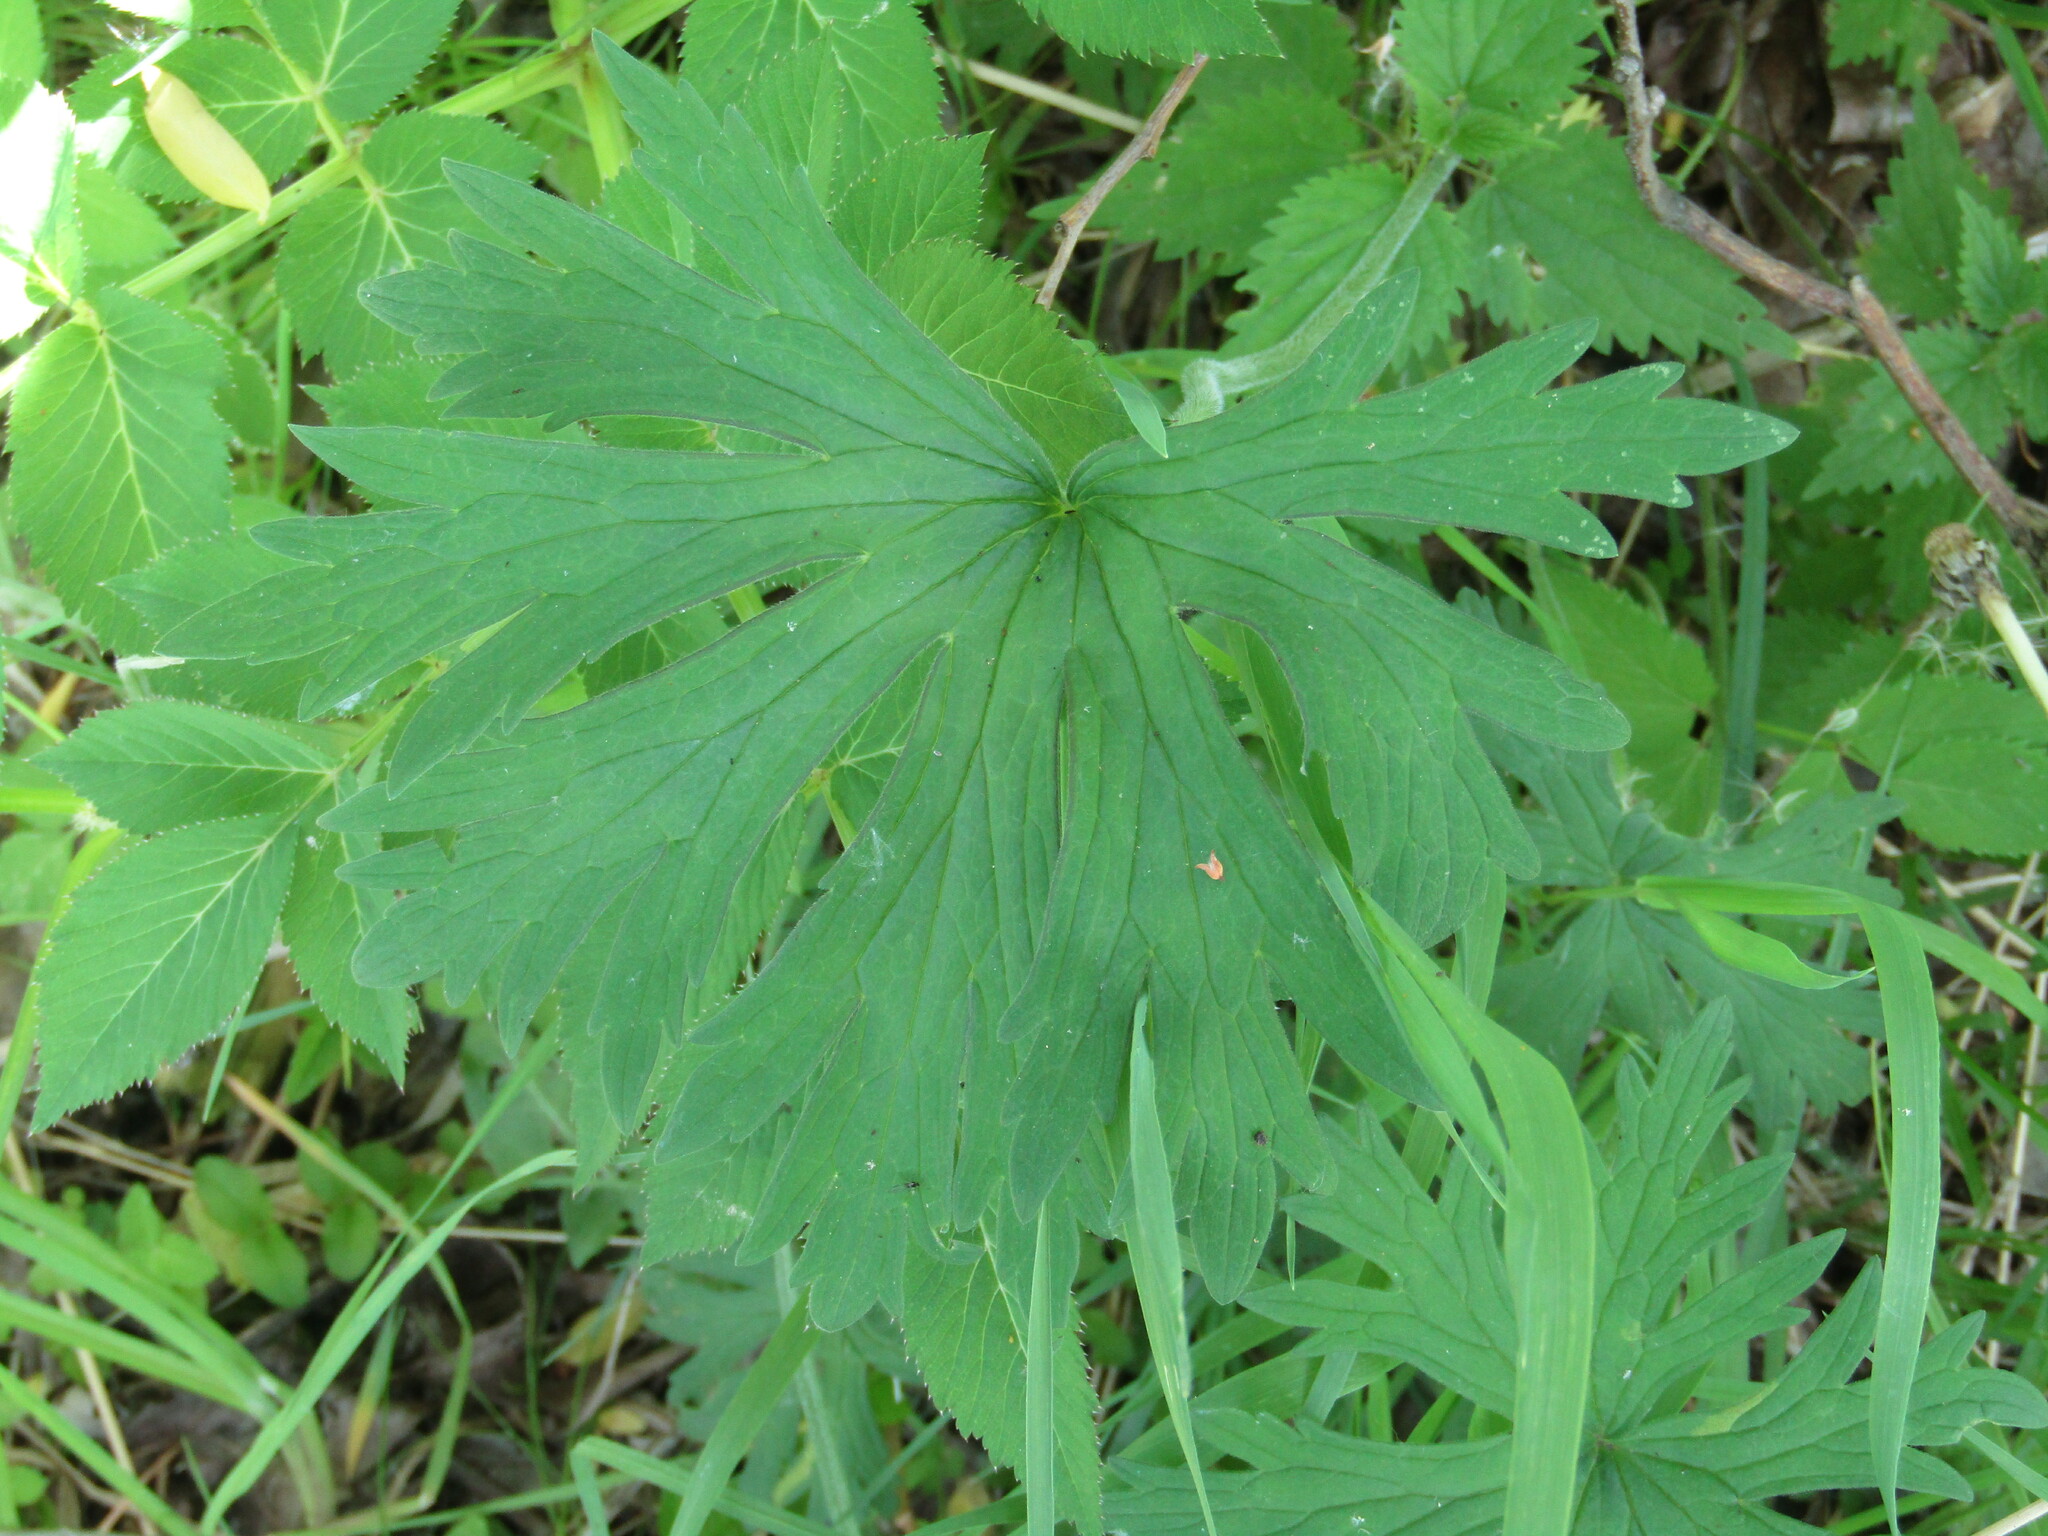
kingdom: Plantae
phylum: Tracheophyta
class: Magnoliopsida
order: Geraniales
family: Geraniaceae
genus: Geranium
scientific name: Geranium pratense
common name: Meadow crane's-bill
